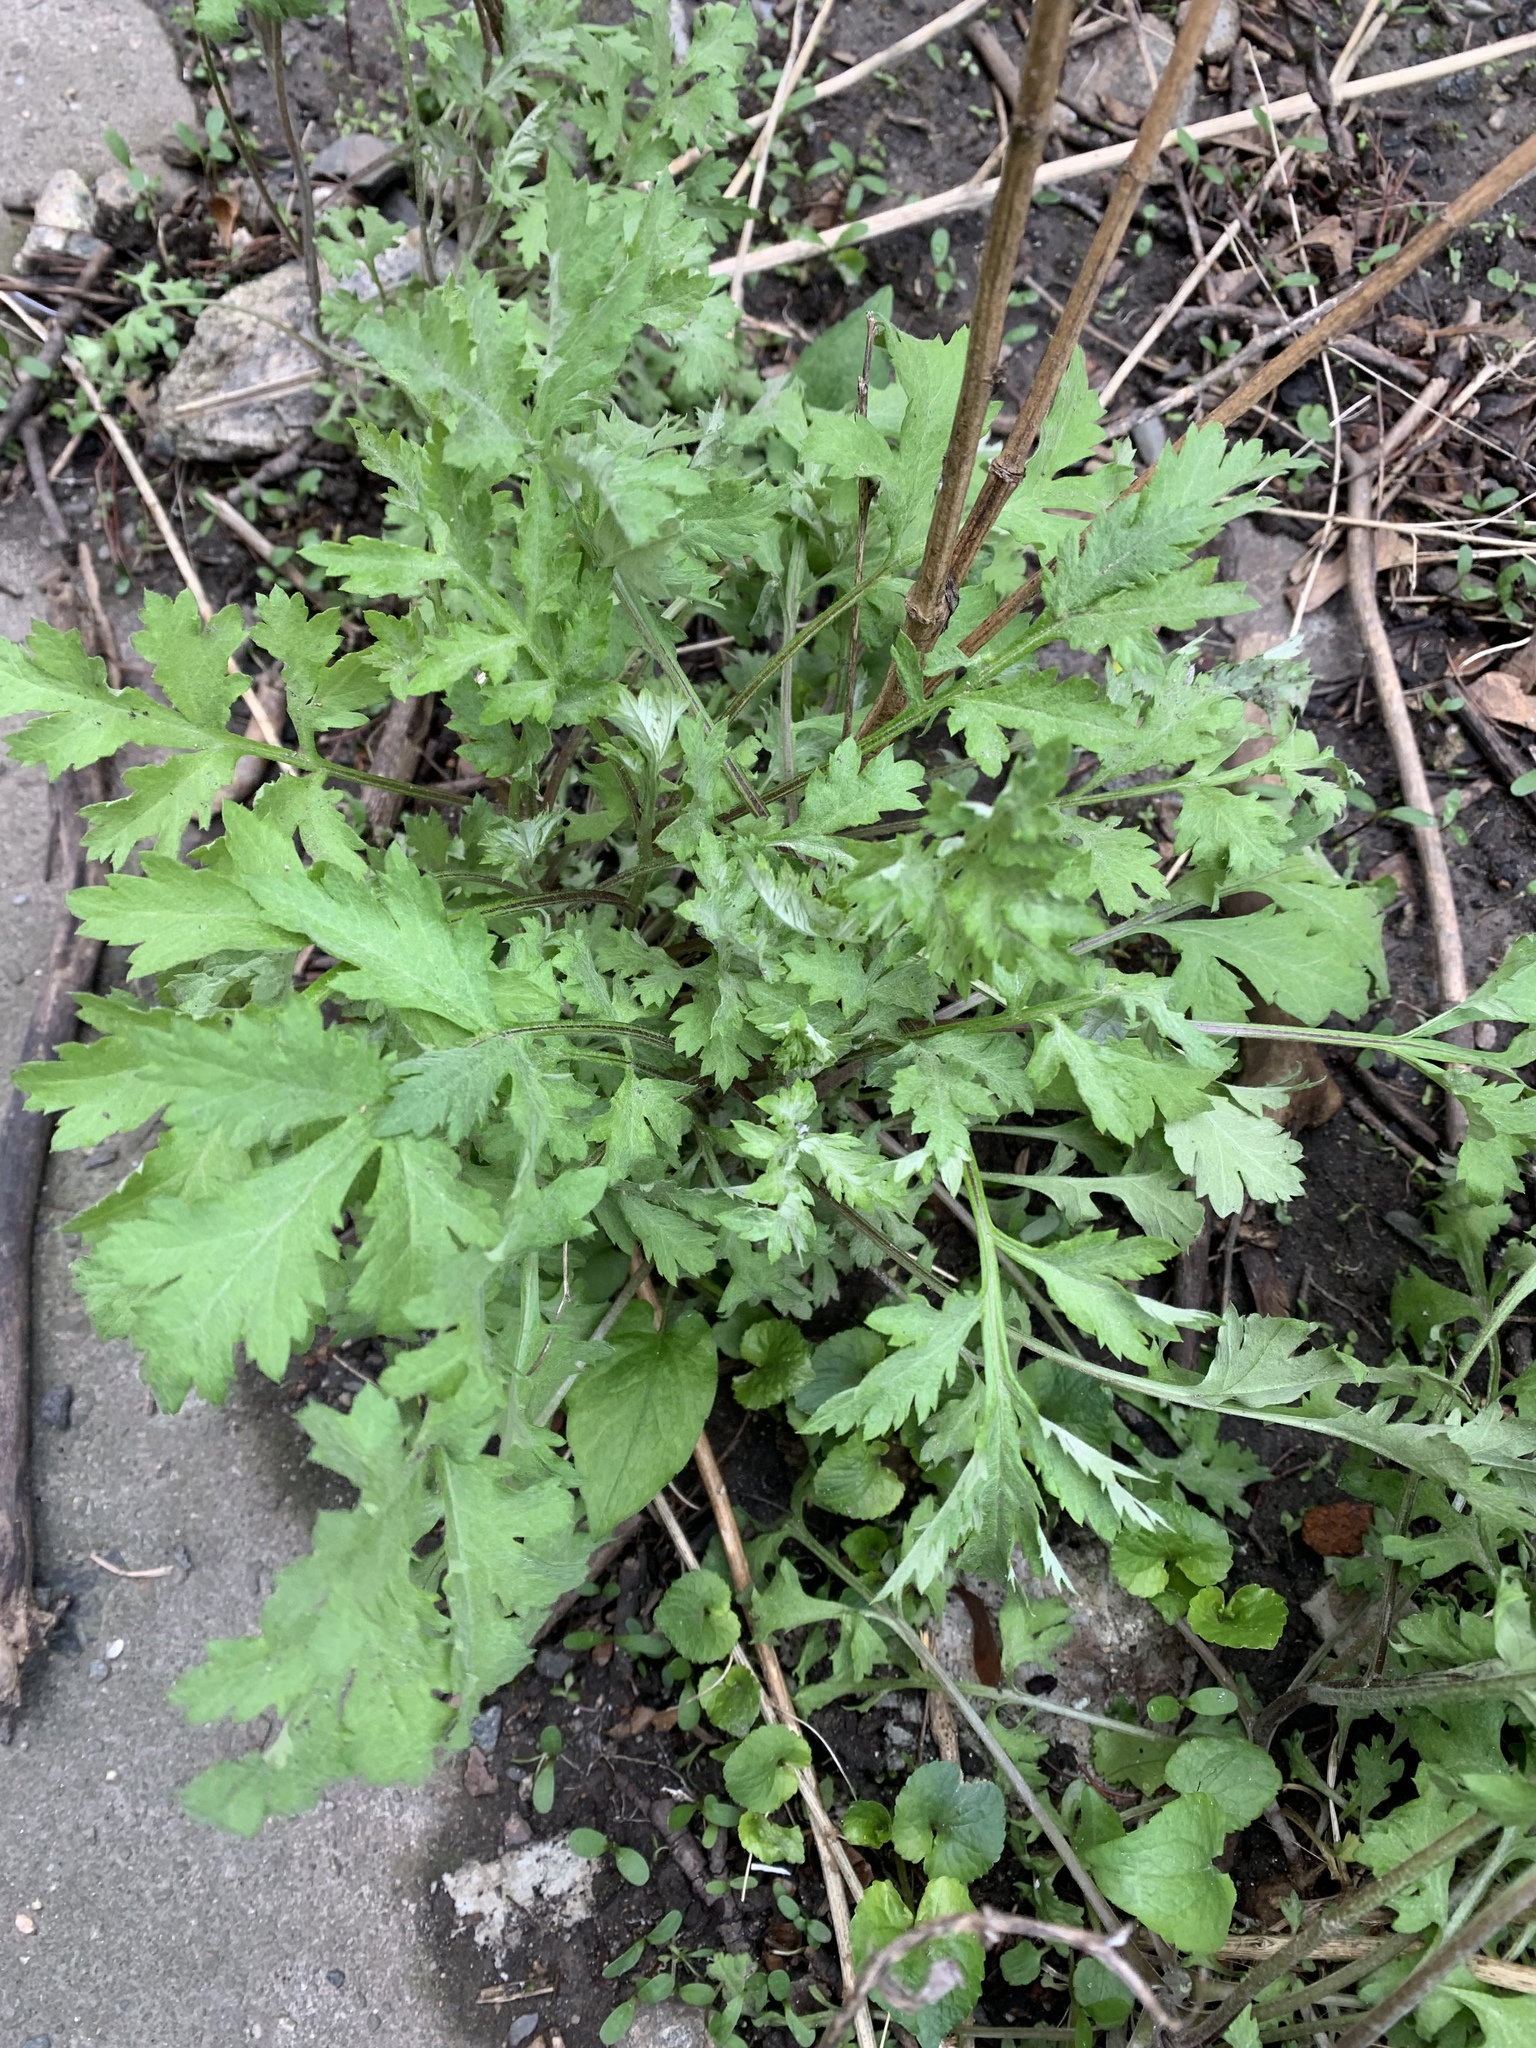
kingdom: Plantae
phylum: Tracheophyta
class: Magnoliopsida
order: Asterales
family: Asteraceae
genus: Artemisia
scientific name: Artemisia vulgaris
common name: Mugwort
